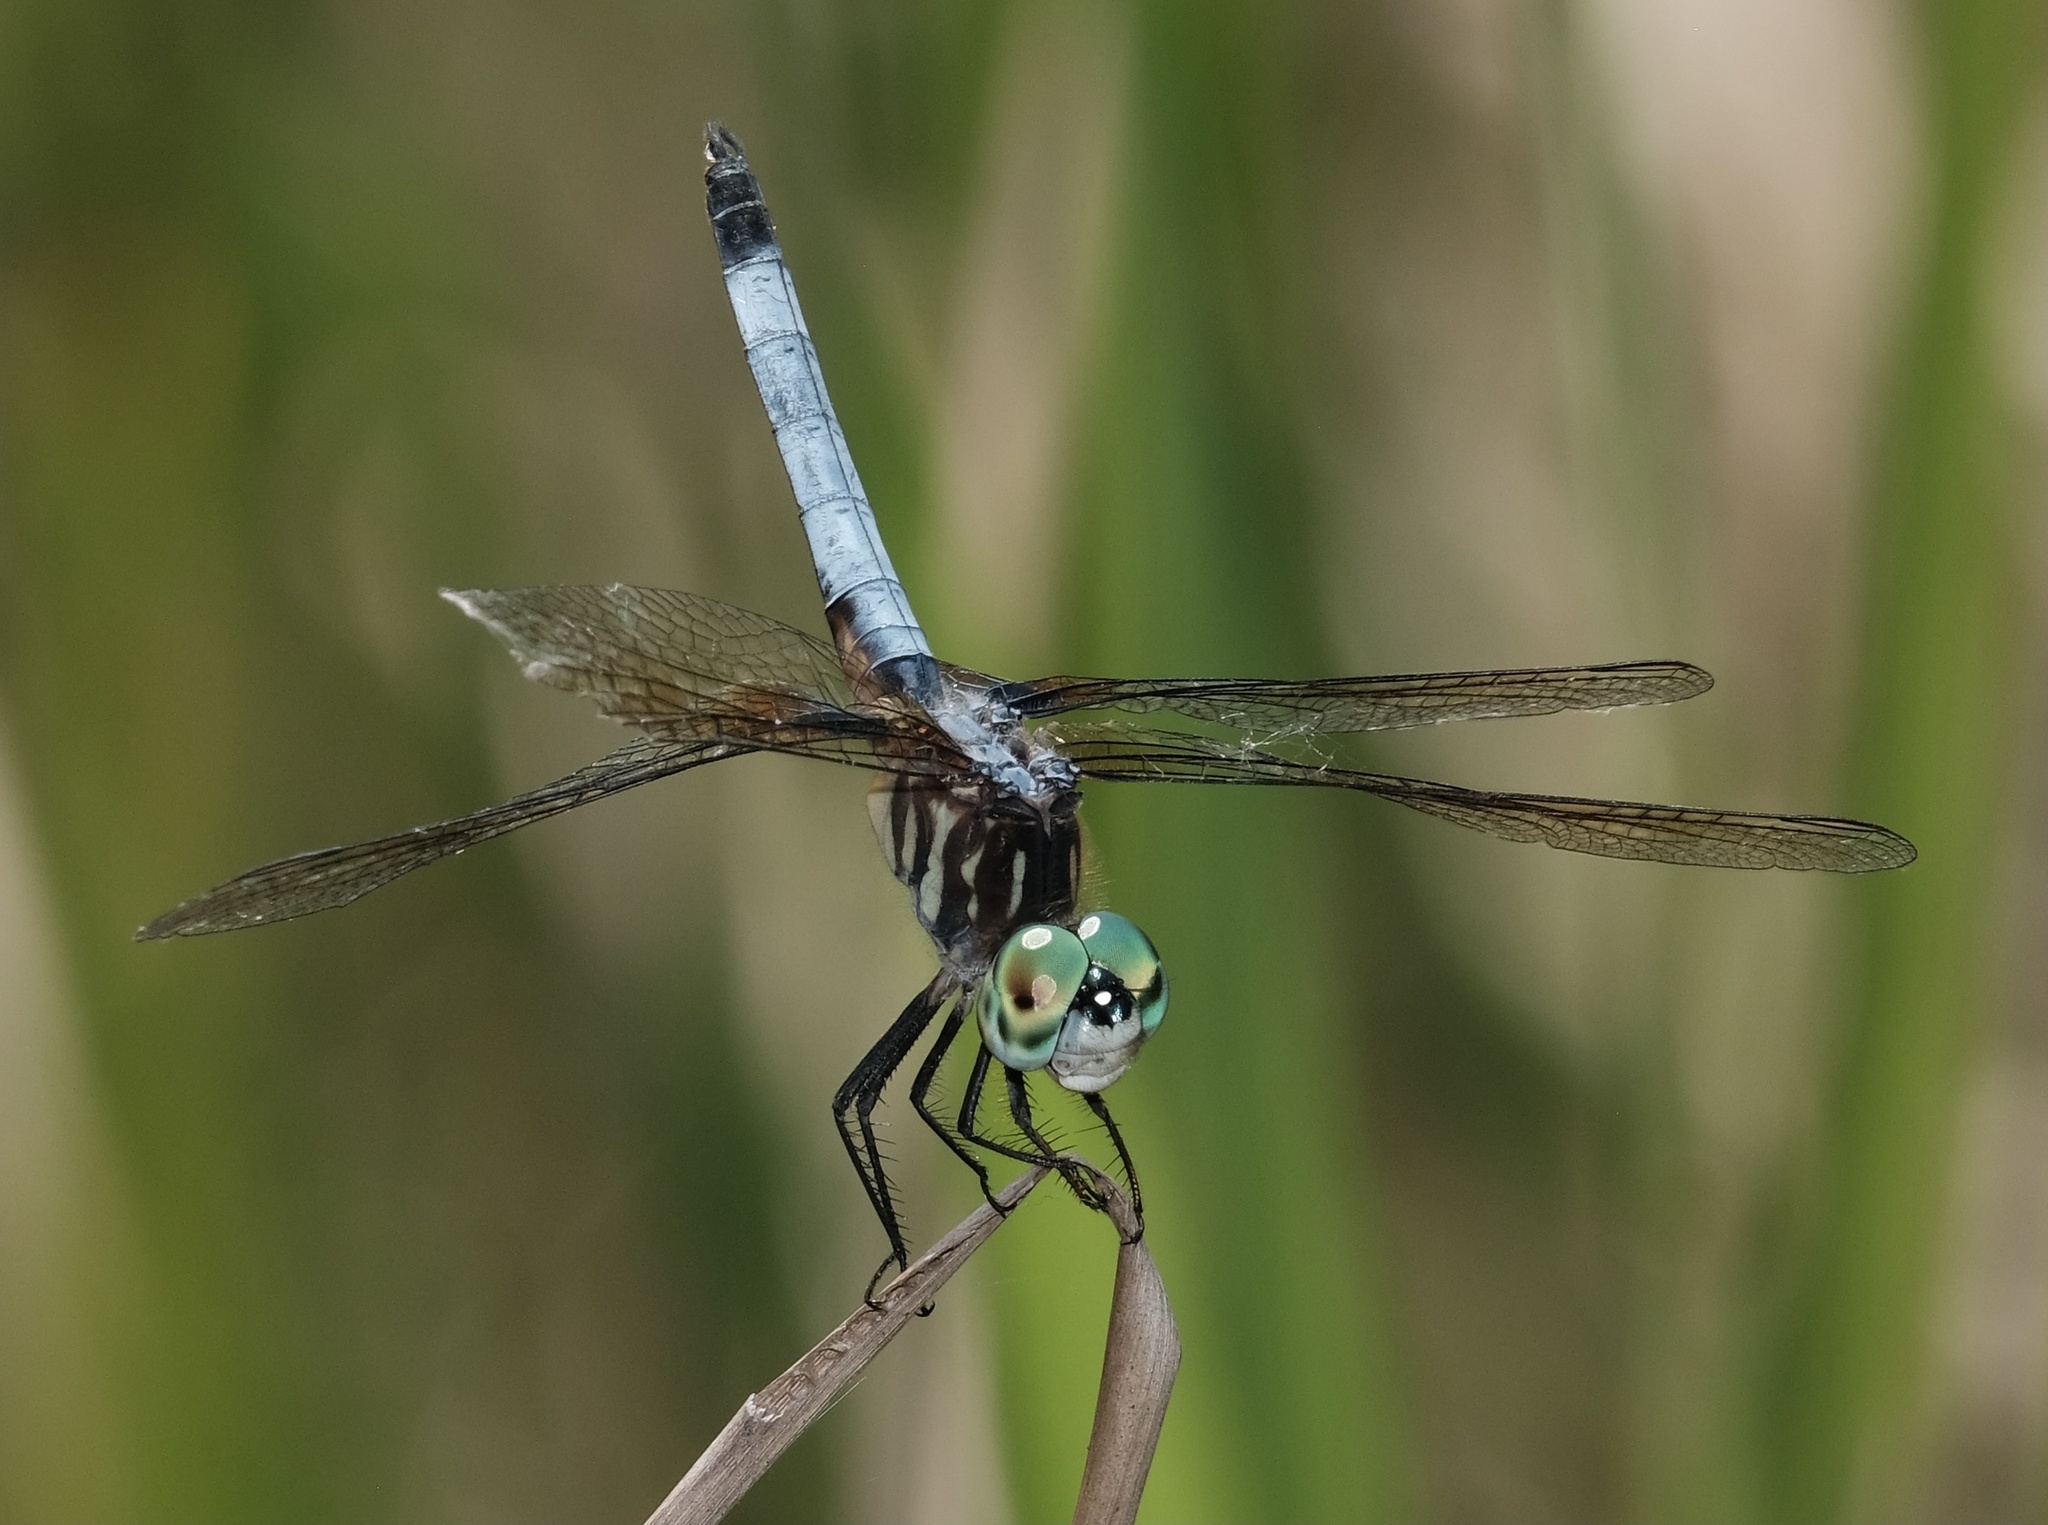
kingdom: Animalia
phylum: Arthropoda
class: Insecta
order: Odonata
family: Libellulidae
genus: Pachydiplax
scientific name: Pachydiplax longipennis
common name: Blue dasher
